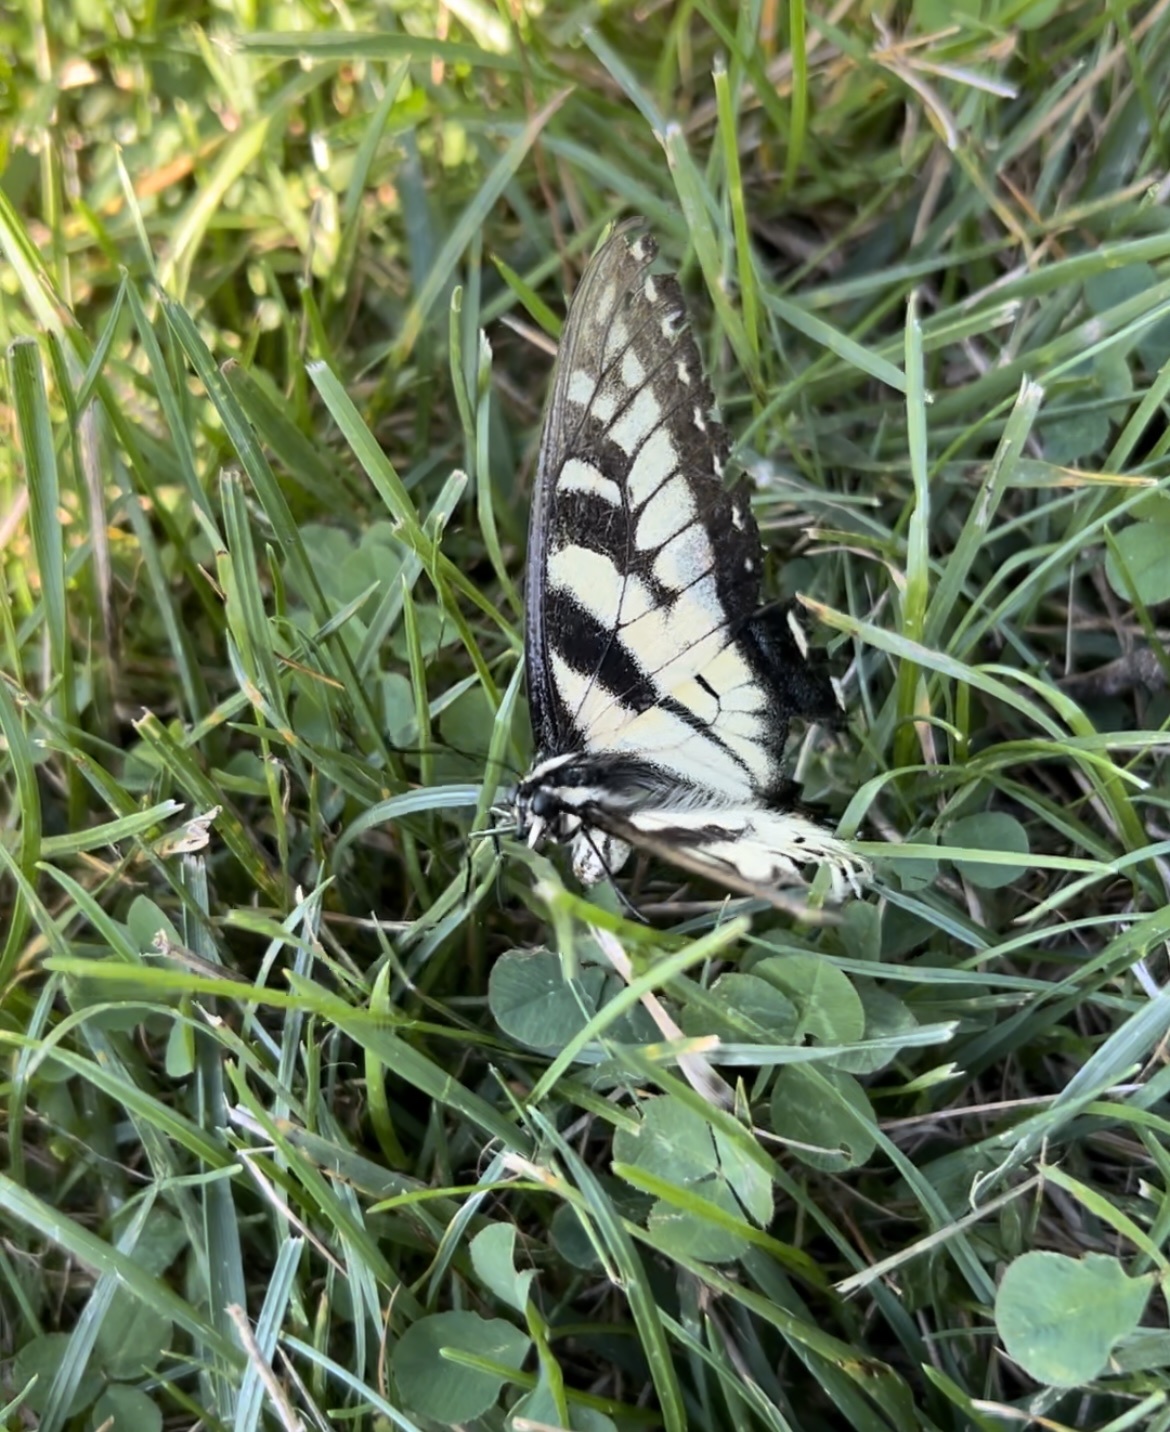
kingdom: Animalia
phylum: Arthropoda
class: Insecta
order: Lepidoptera
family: Papilionidae
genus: Papilio
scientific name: Papilio glaucus
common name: Tiger swallowtail
